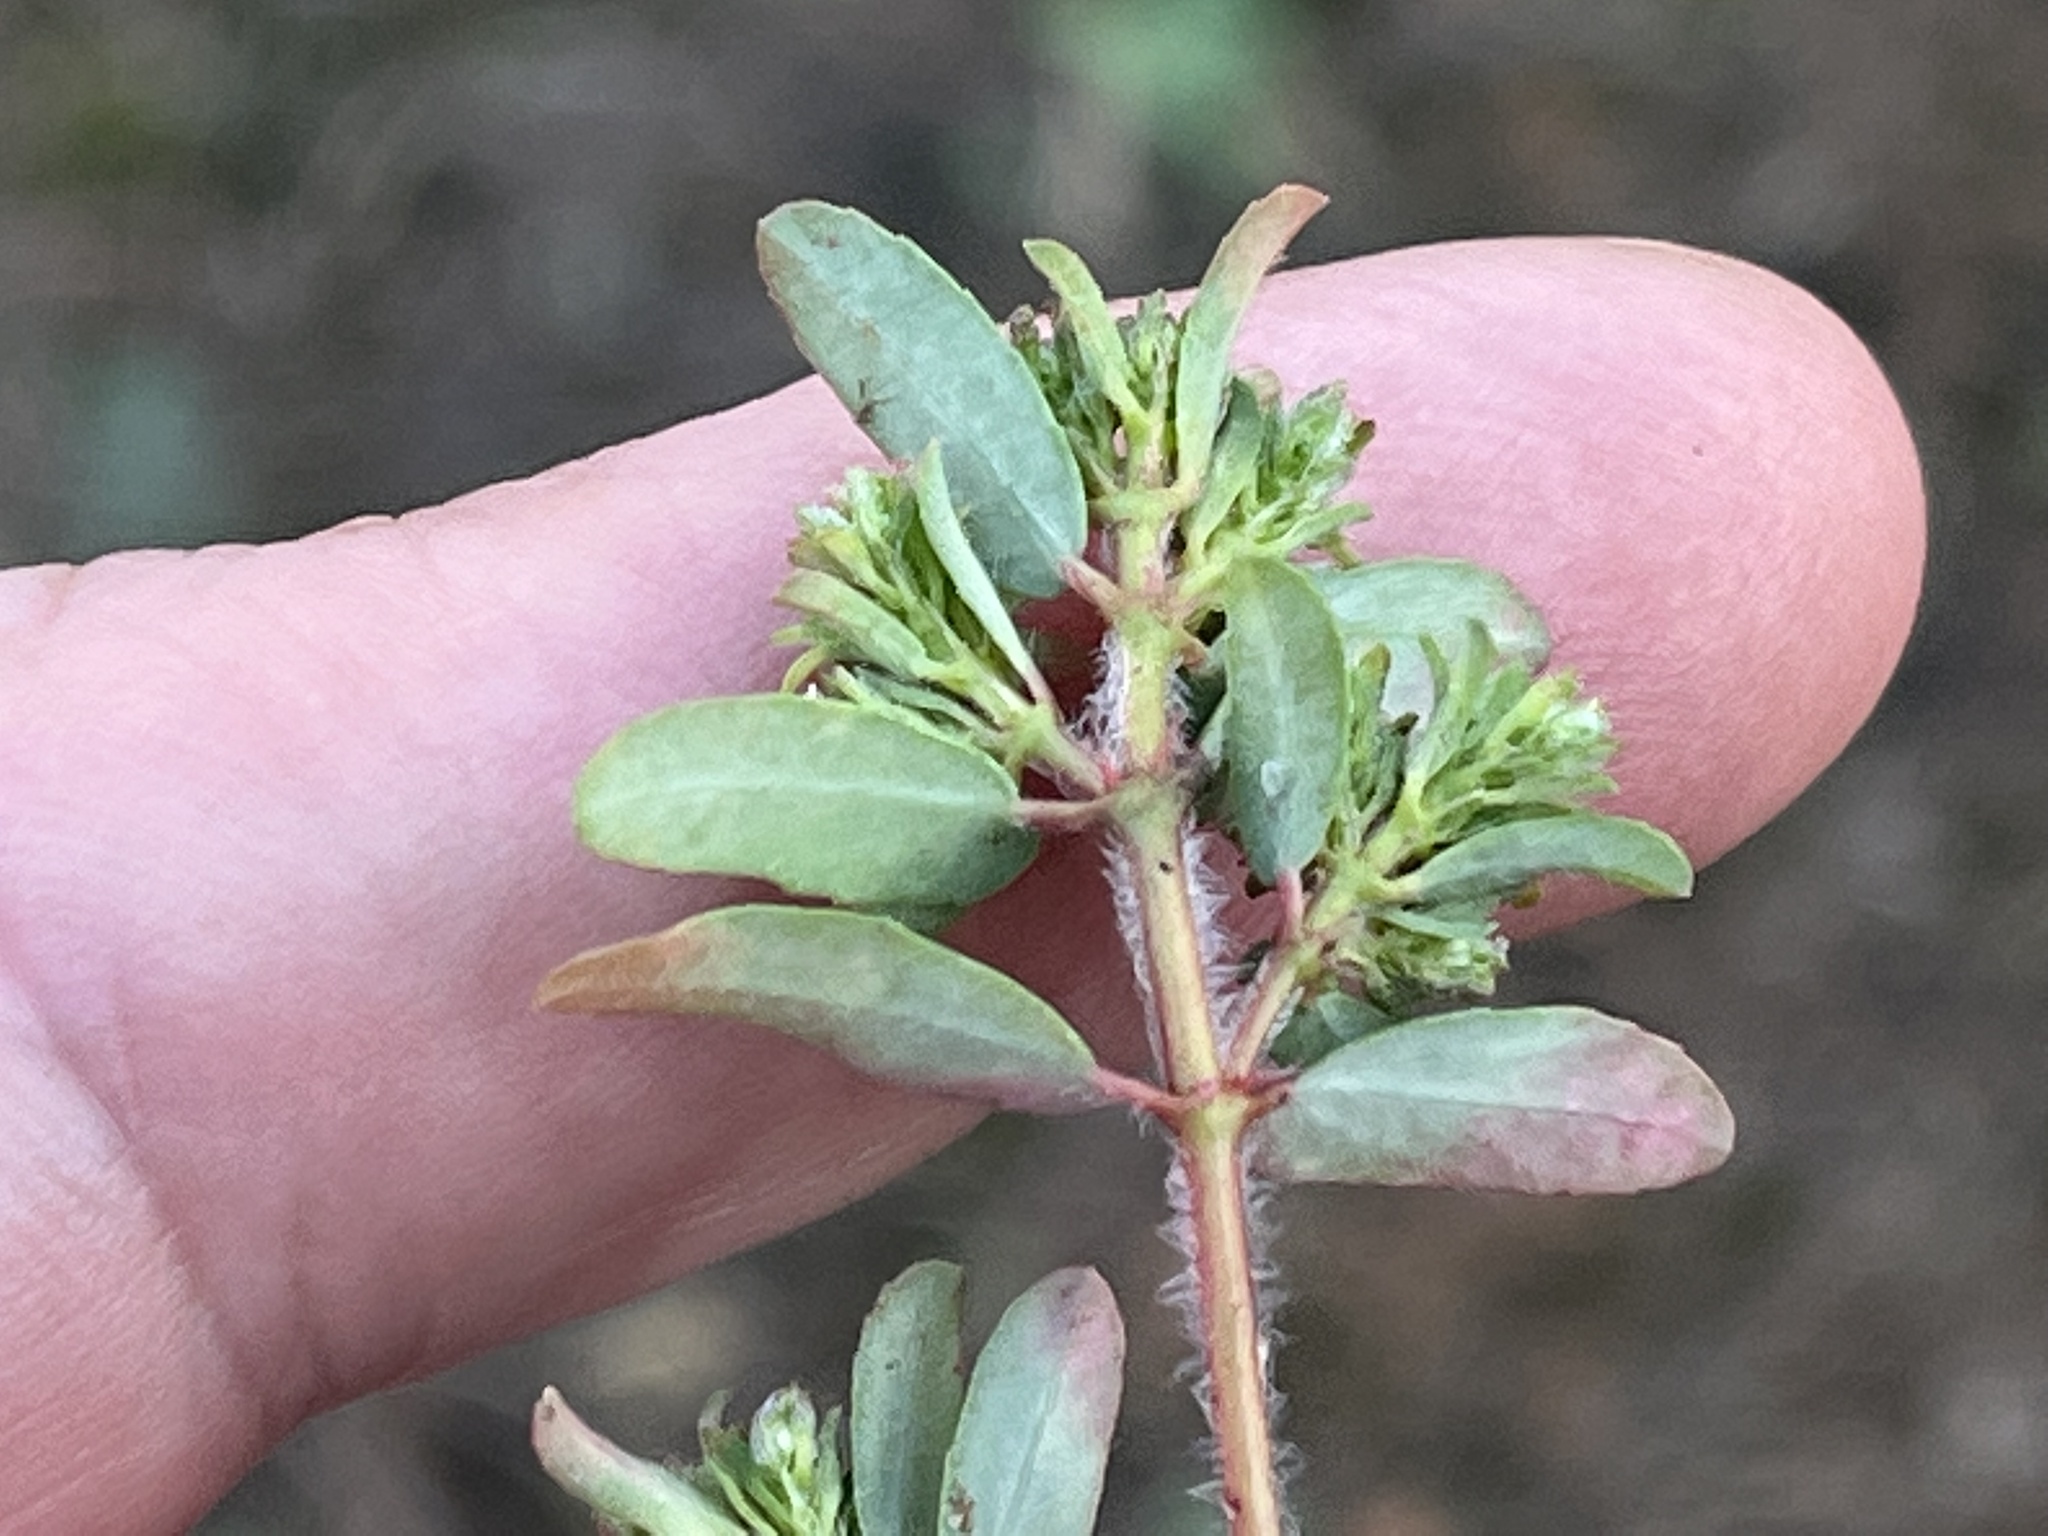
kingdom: Plantae
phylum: Tracheophyta
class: Magnoliopsida
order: Malpighiales
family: Euphorbiaceae
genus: Euphorbia
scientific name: Euphorbia maculata
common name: Spotted spurge
